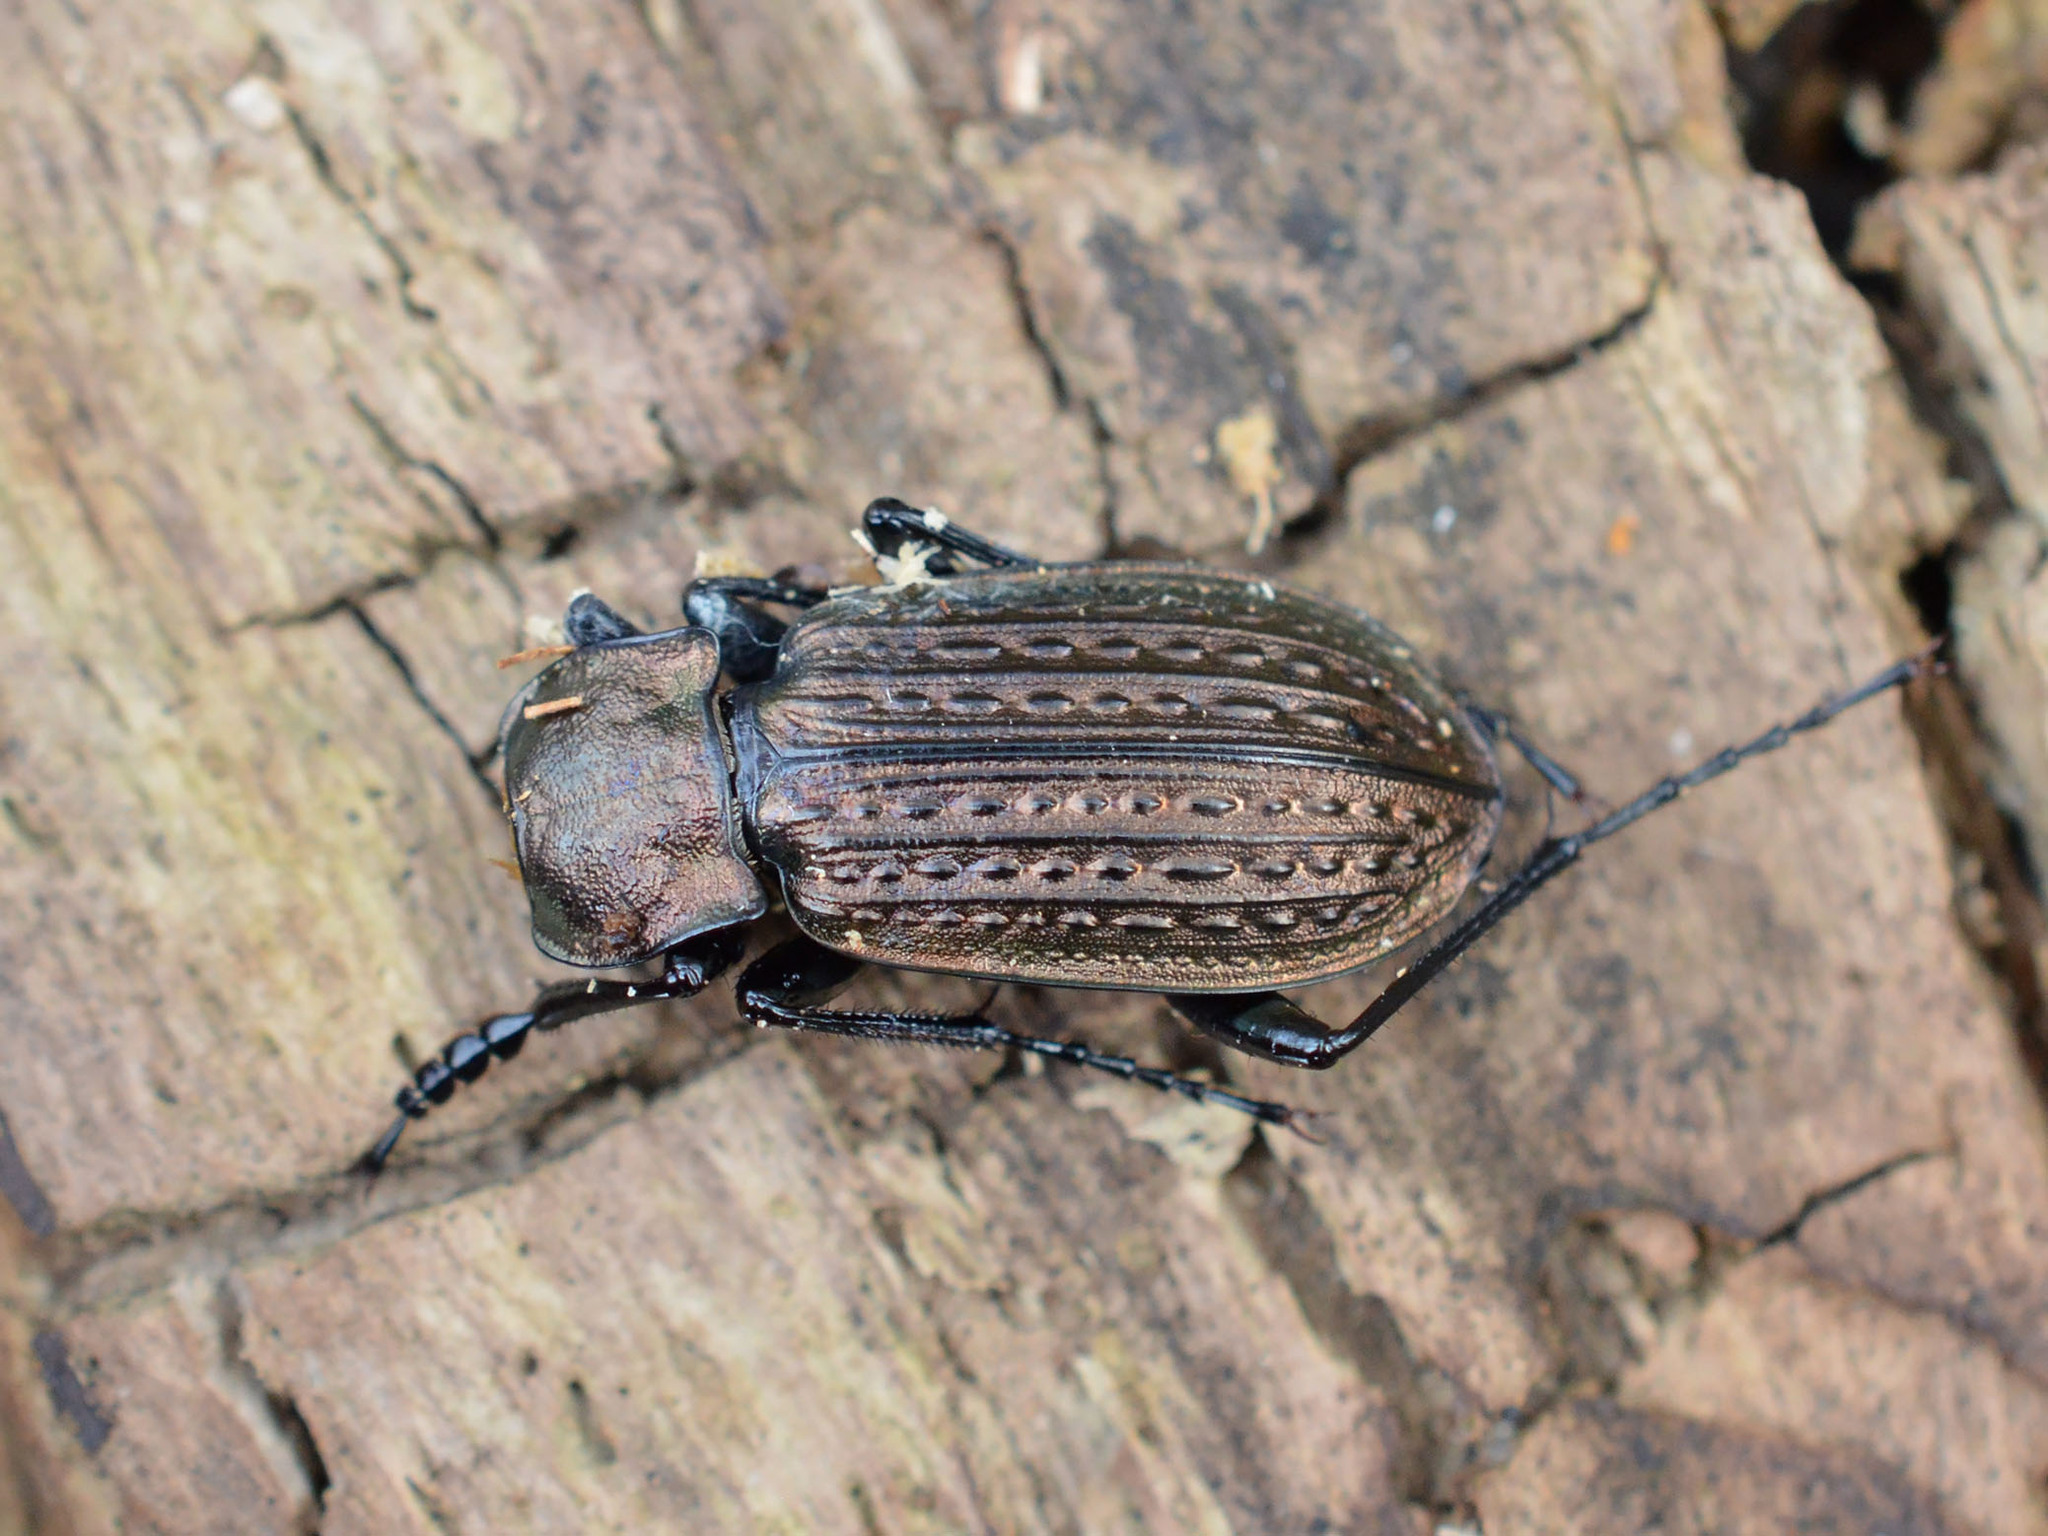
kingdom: Animalia
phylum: Arthropoda
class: Insecta
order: Coleoptera
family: Carabidae
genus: Carabus
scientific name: Carabus granulatus
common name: Granulate ground beetle
